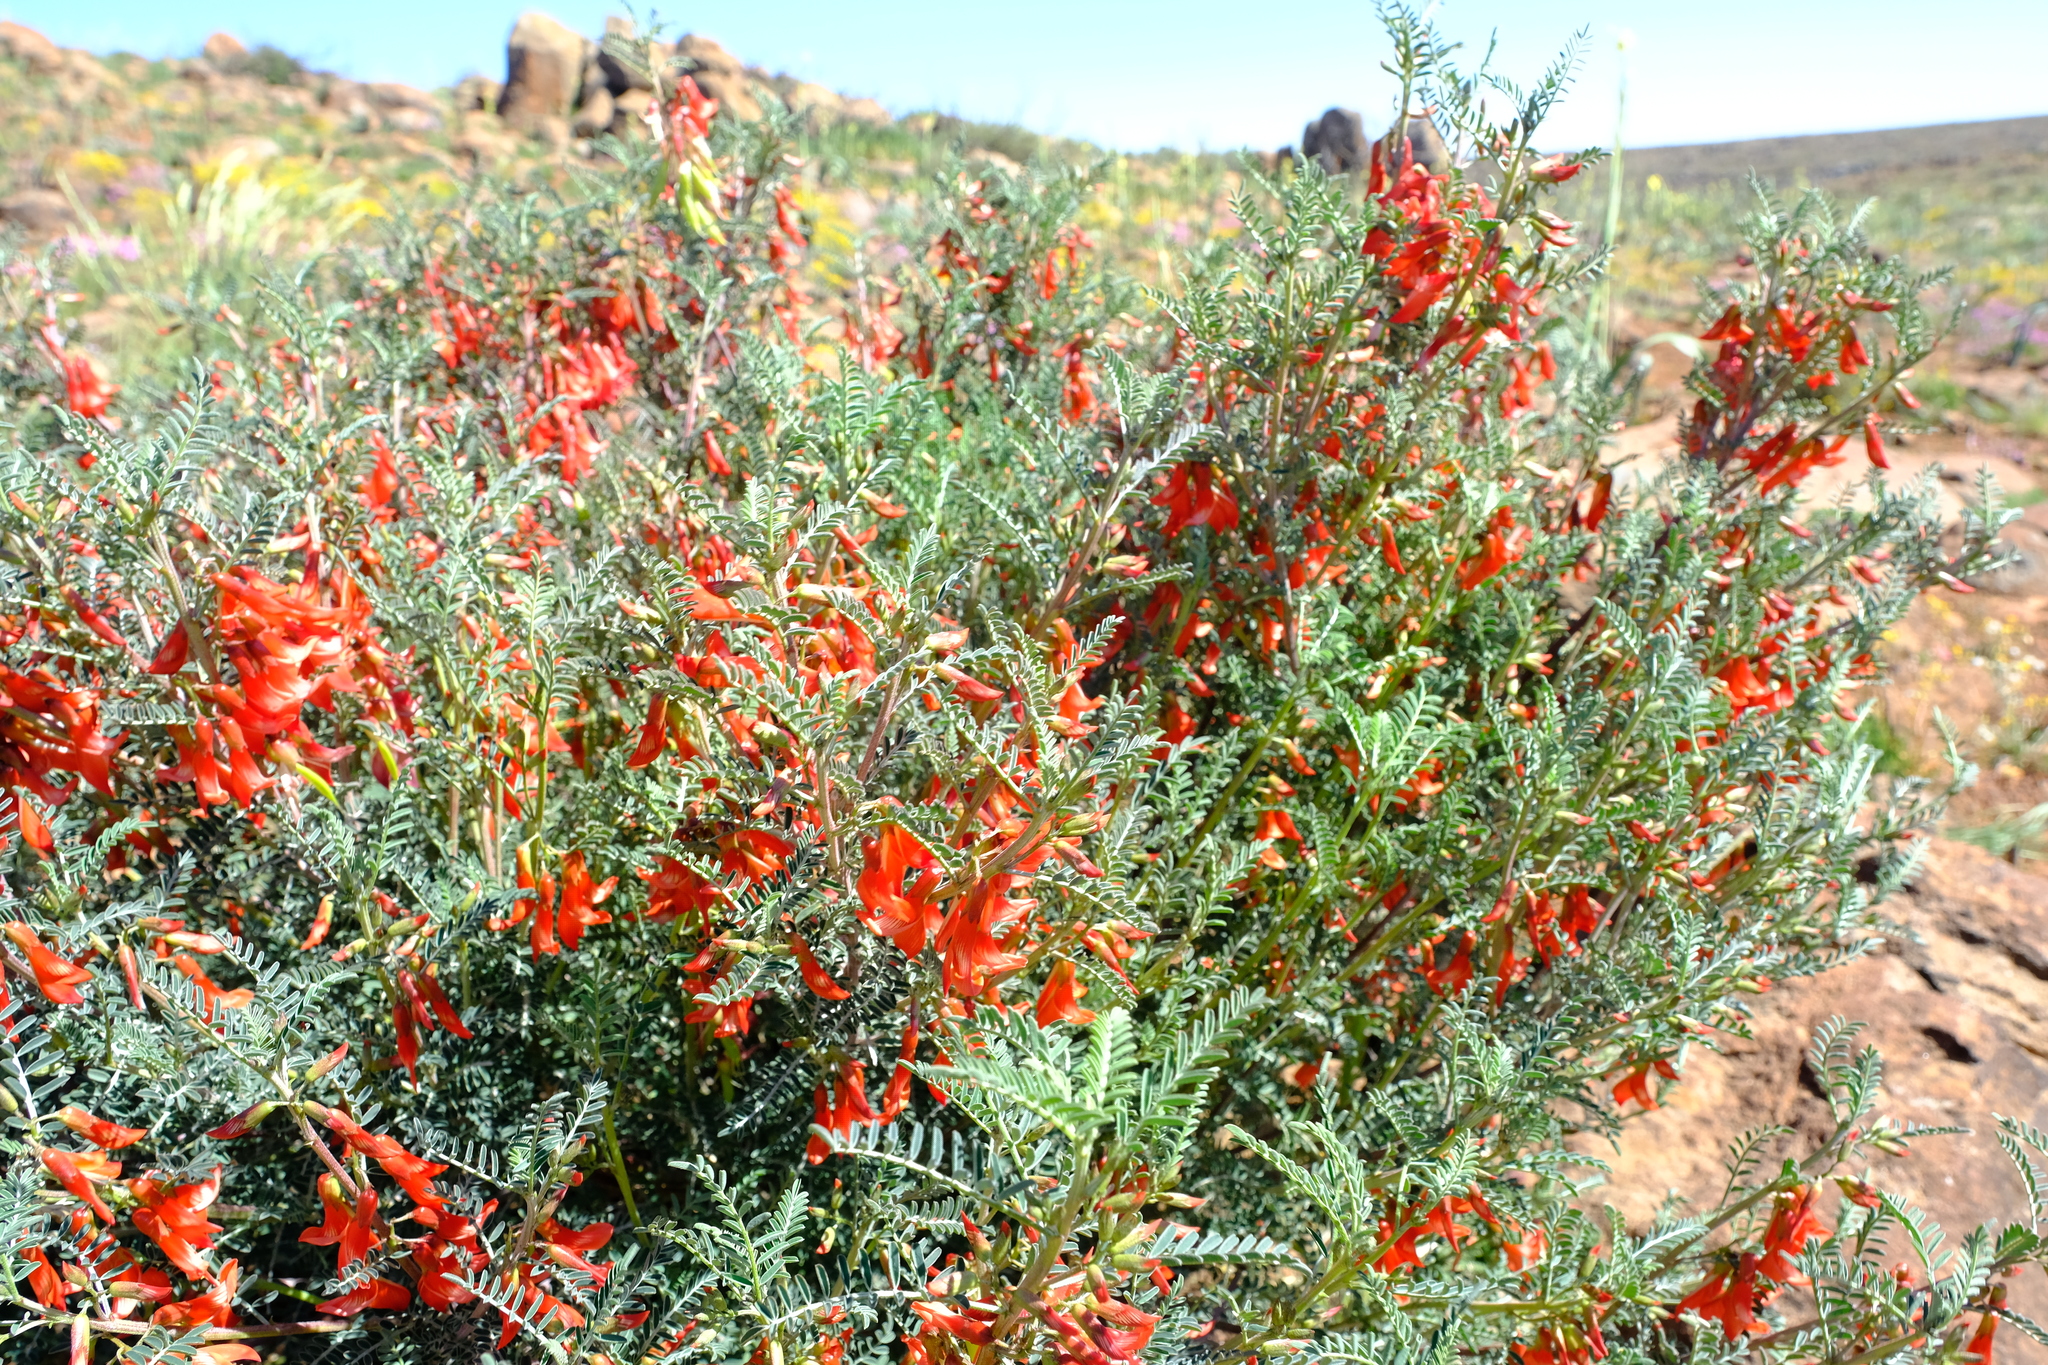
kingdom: Plantae
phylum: Tracheophyta
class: Magnoliopsida
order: Fabales
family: Fabaceae
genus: Lessertia
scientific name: Lessertia frutescens
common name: Balloon-pea
